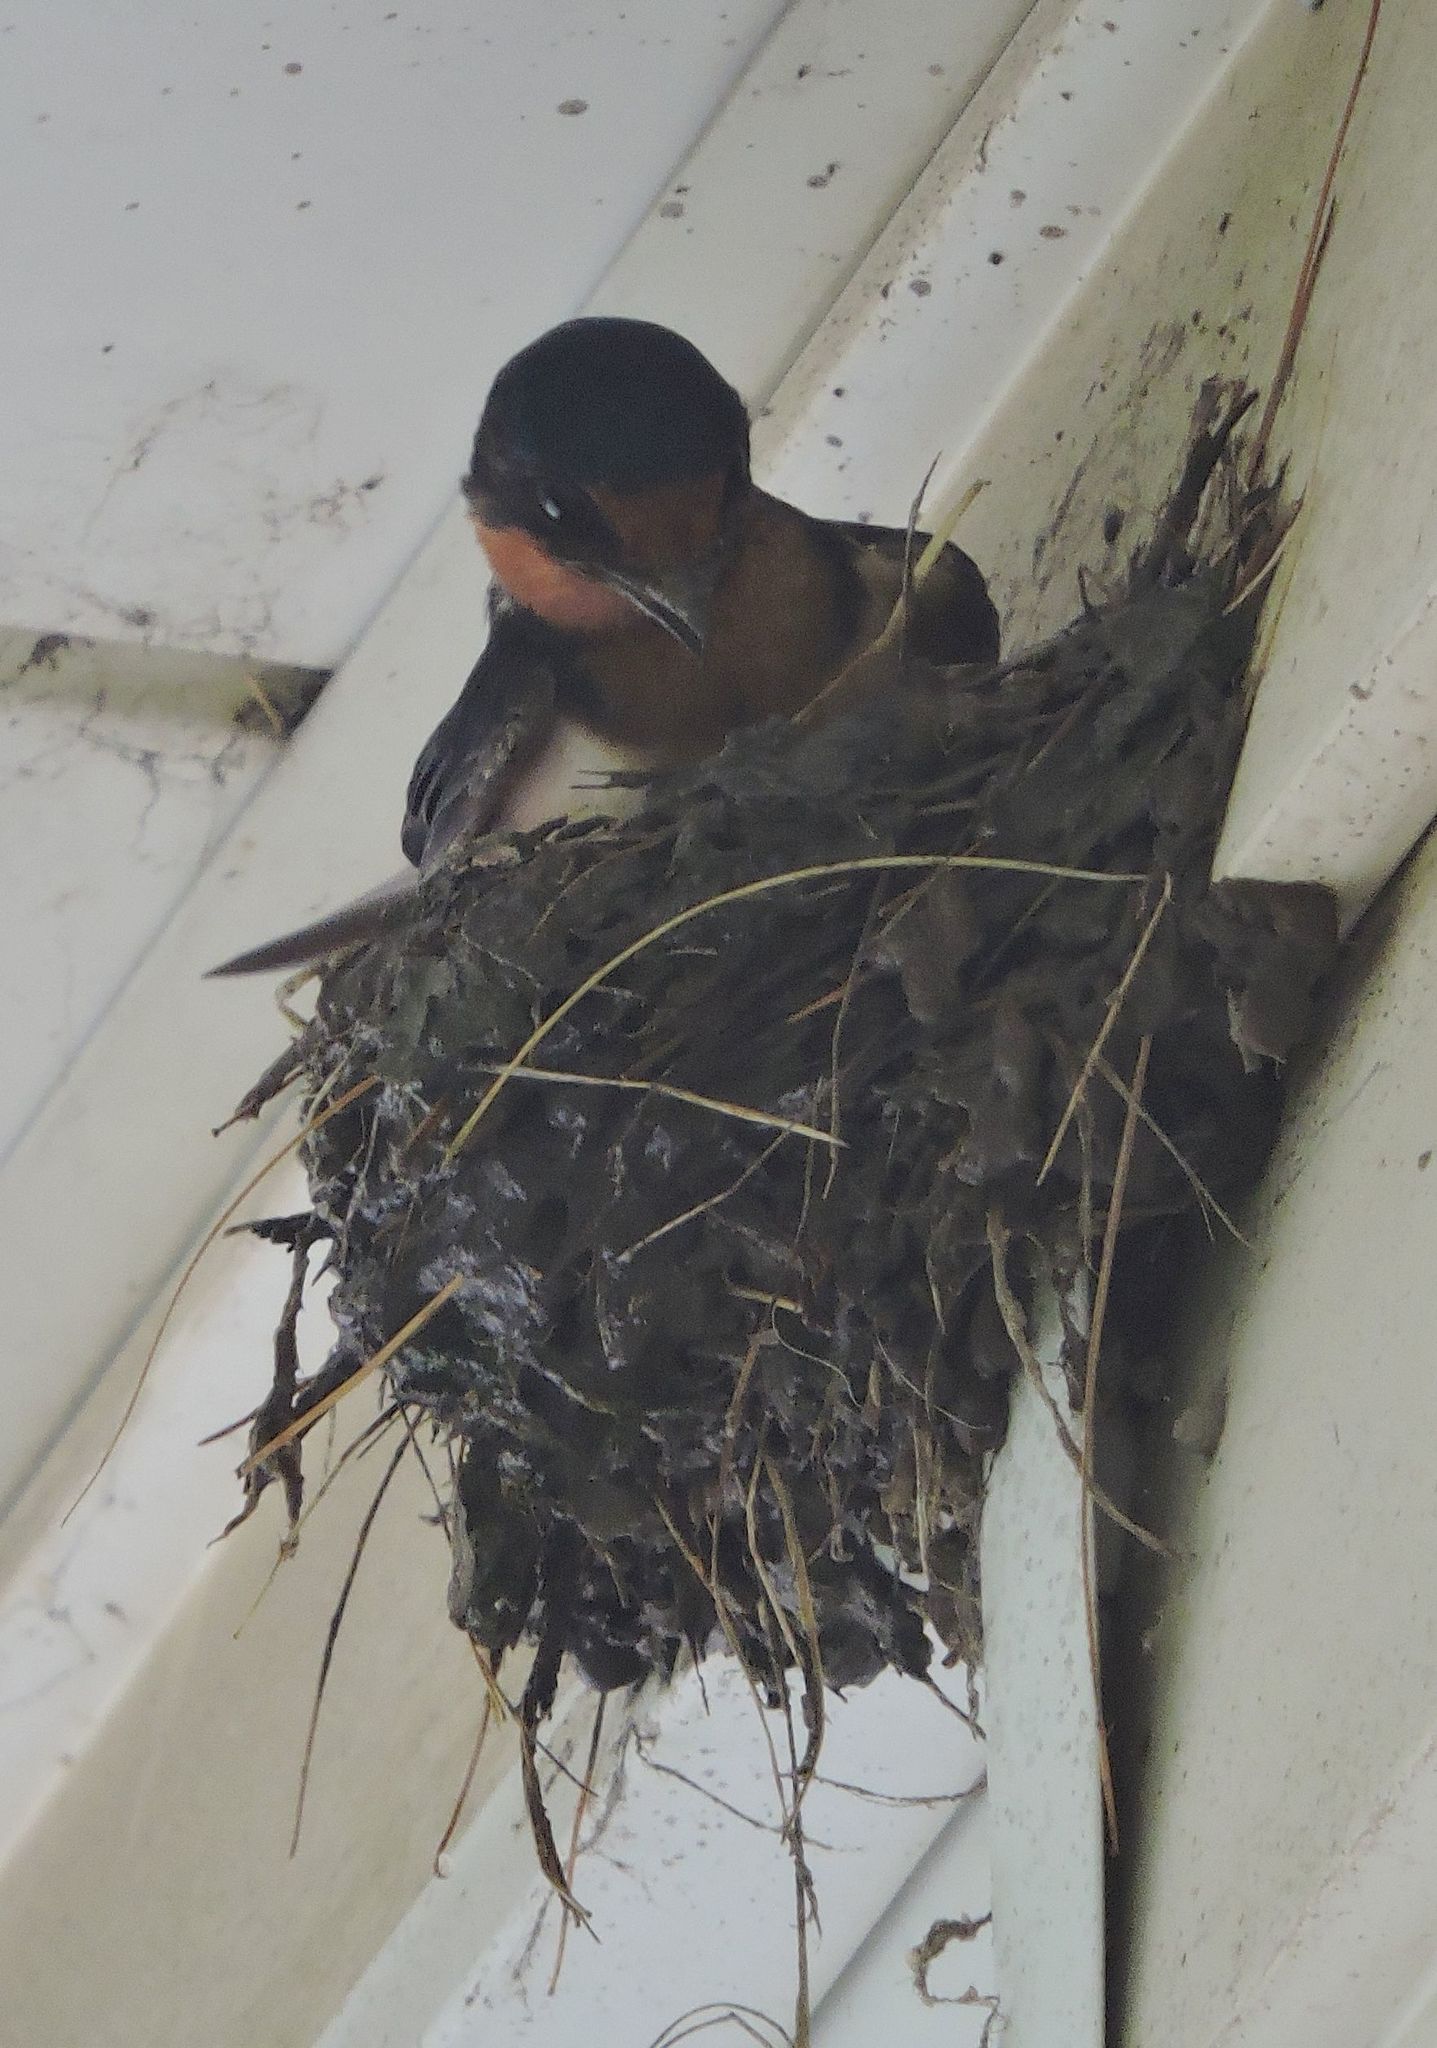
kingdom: Animalia
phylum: Chordata
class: Aves
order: Passeriformes
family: Hirundinidae
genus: Hirundo
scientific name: Hirundo rustica
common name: Barn swallow
